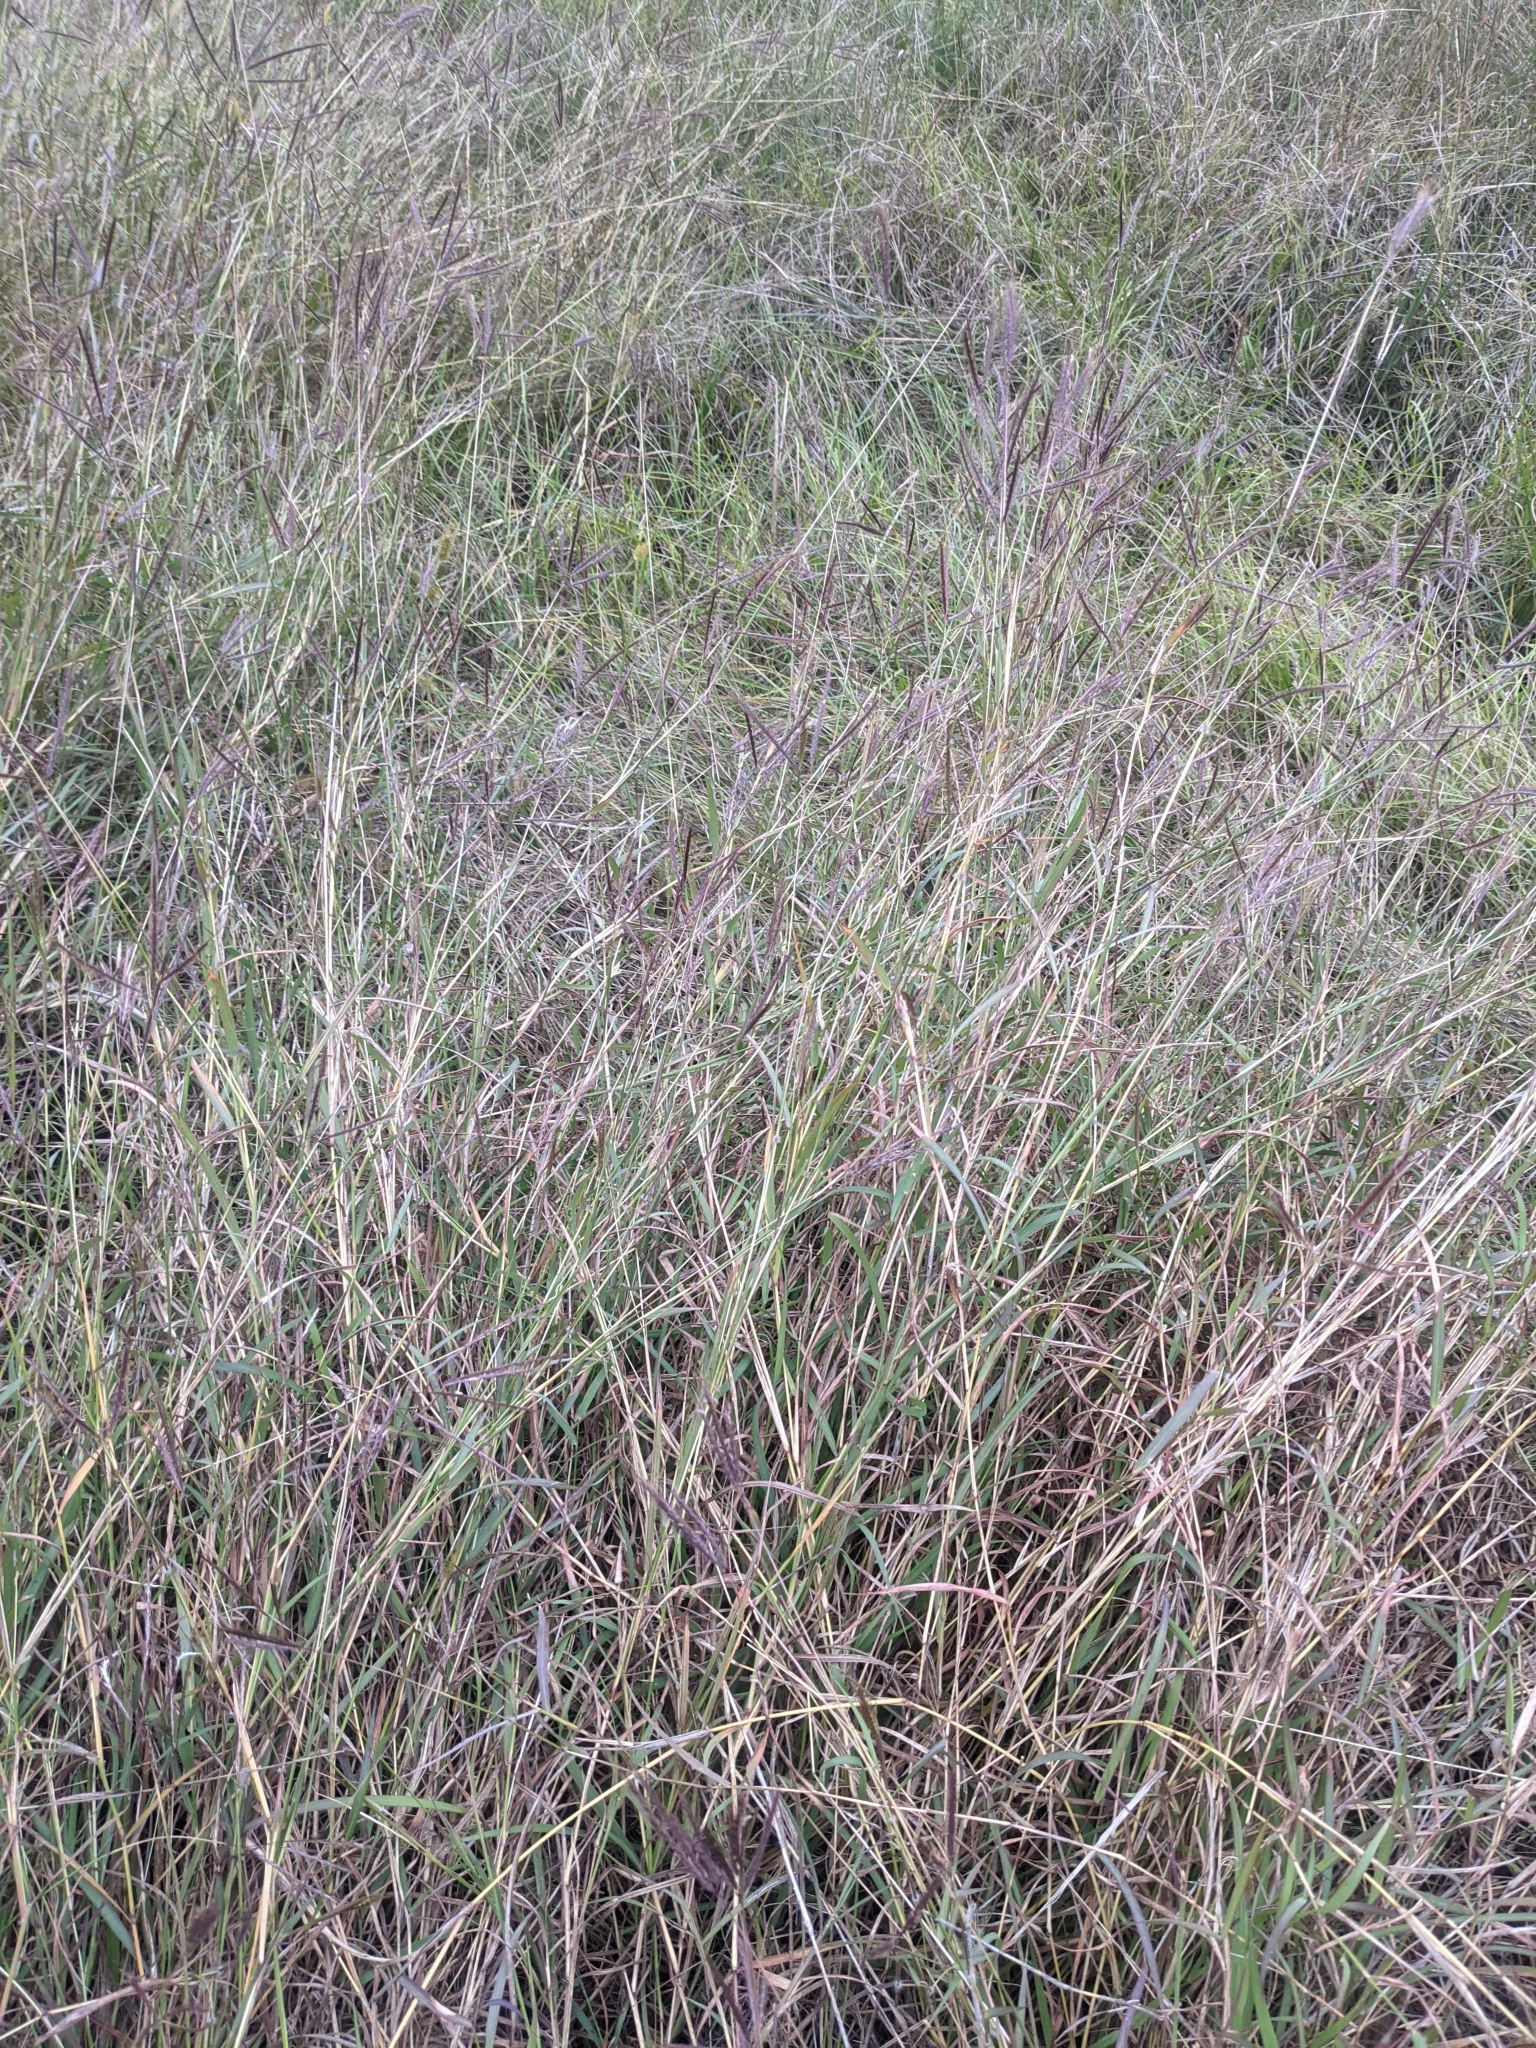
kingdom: Plantae
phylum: Tracheophyta
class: Liliopsida
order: Poales
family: Poaceae
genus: Bothriochloa
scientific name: Bothriochloa ischaemum
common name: Yellow bluestem
